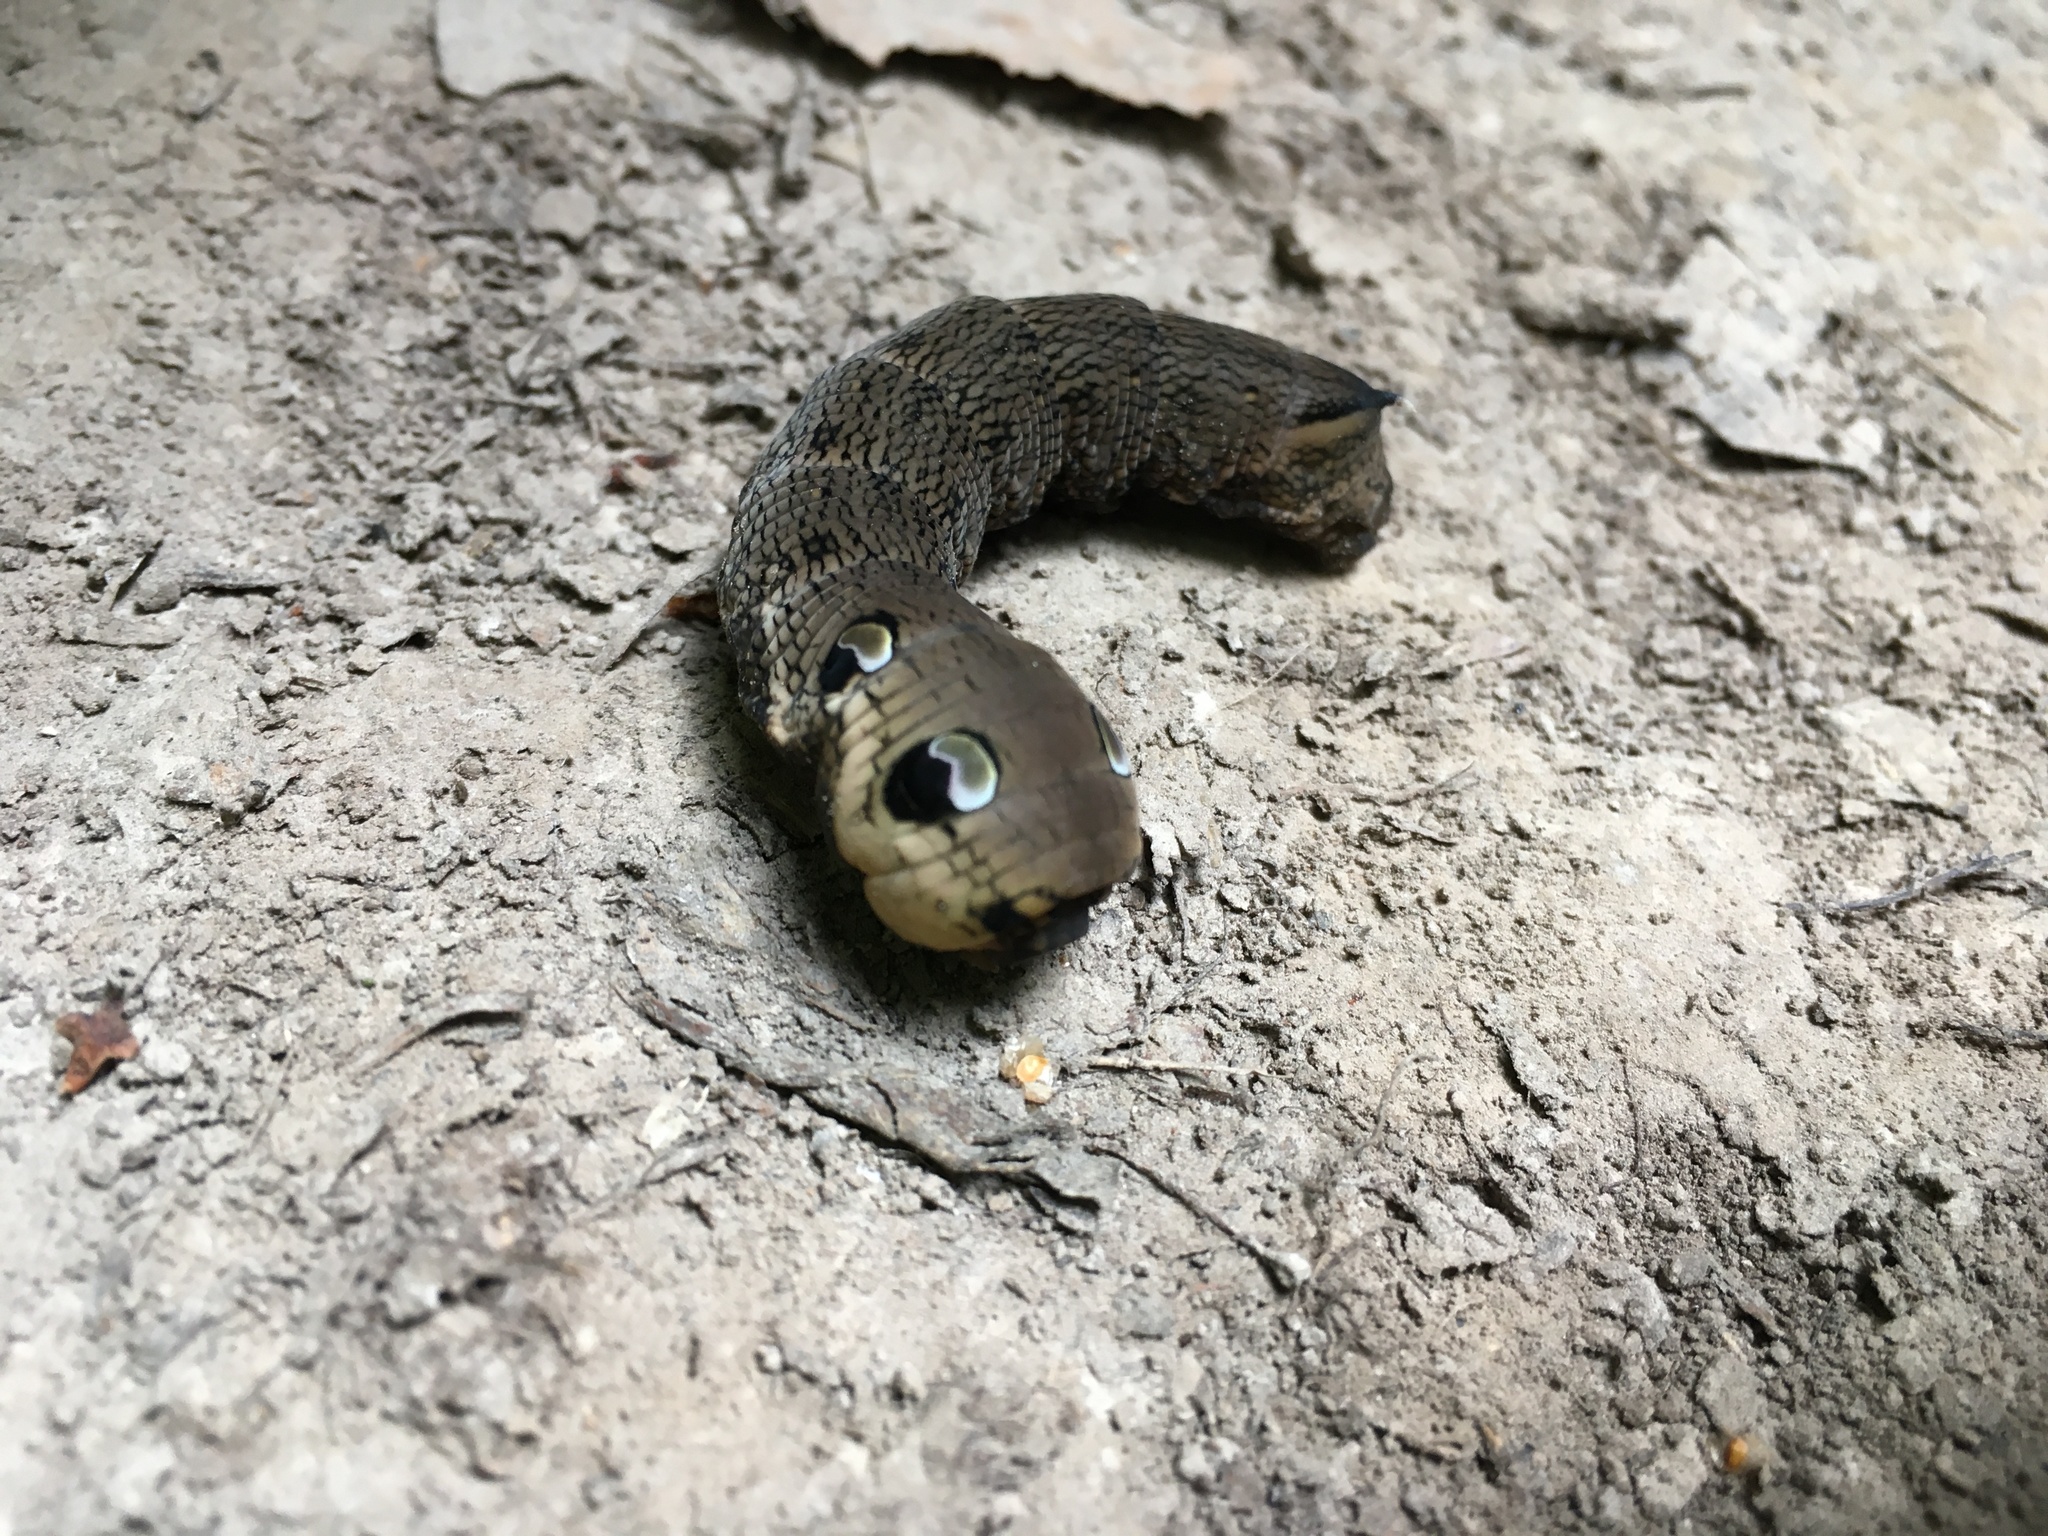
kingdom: Animalia
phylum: Arthropoda
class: Insecta
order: Lepidoptera
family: Sphingidae
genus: Deilephila
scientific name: Deilephila elpenor
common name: Elephant hawk-moth
